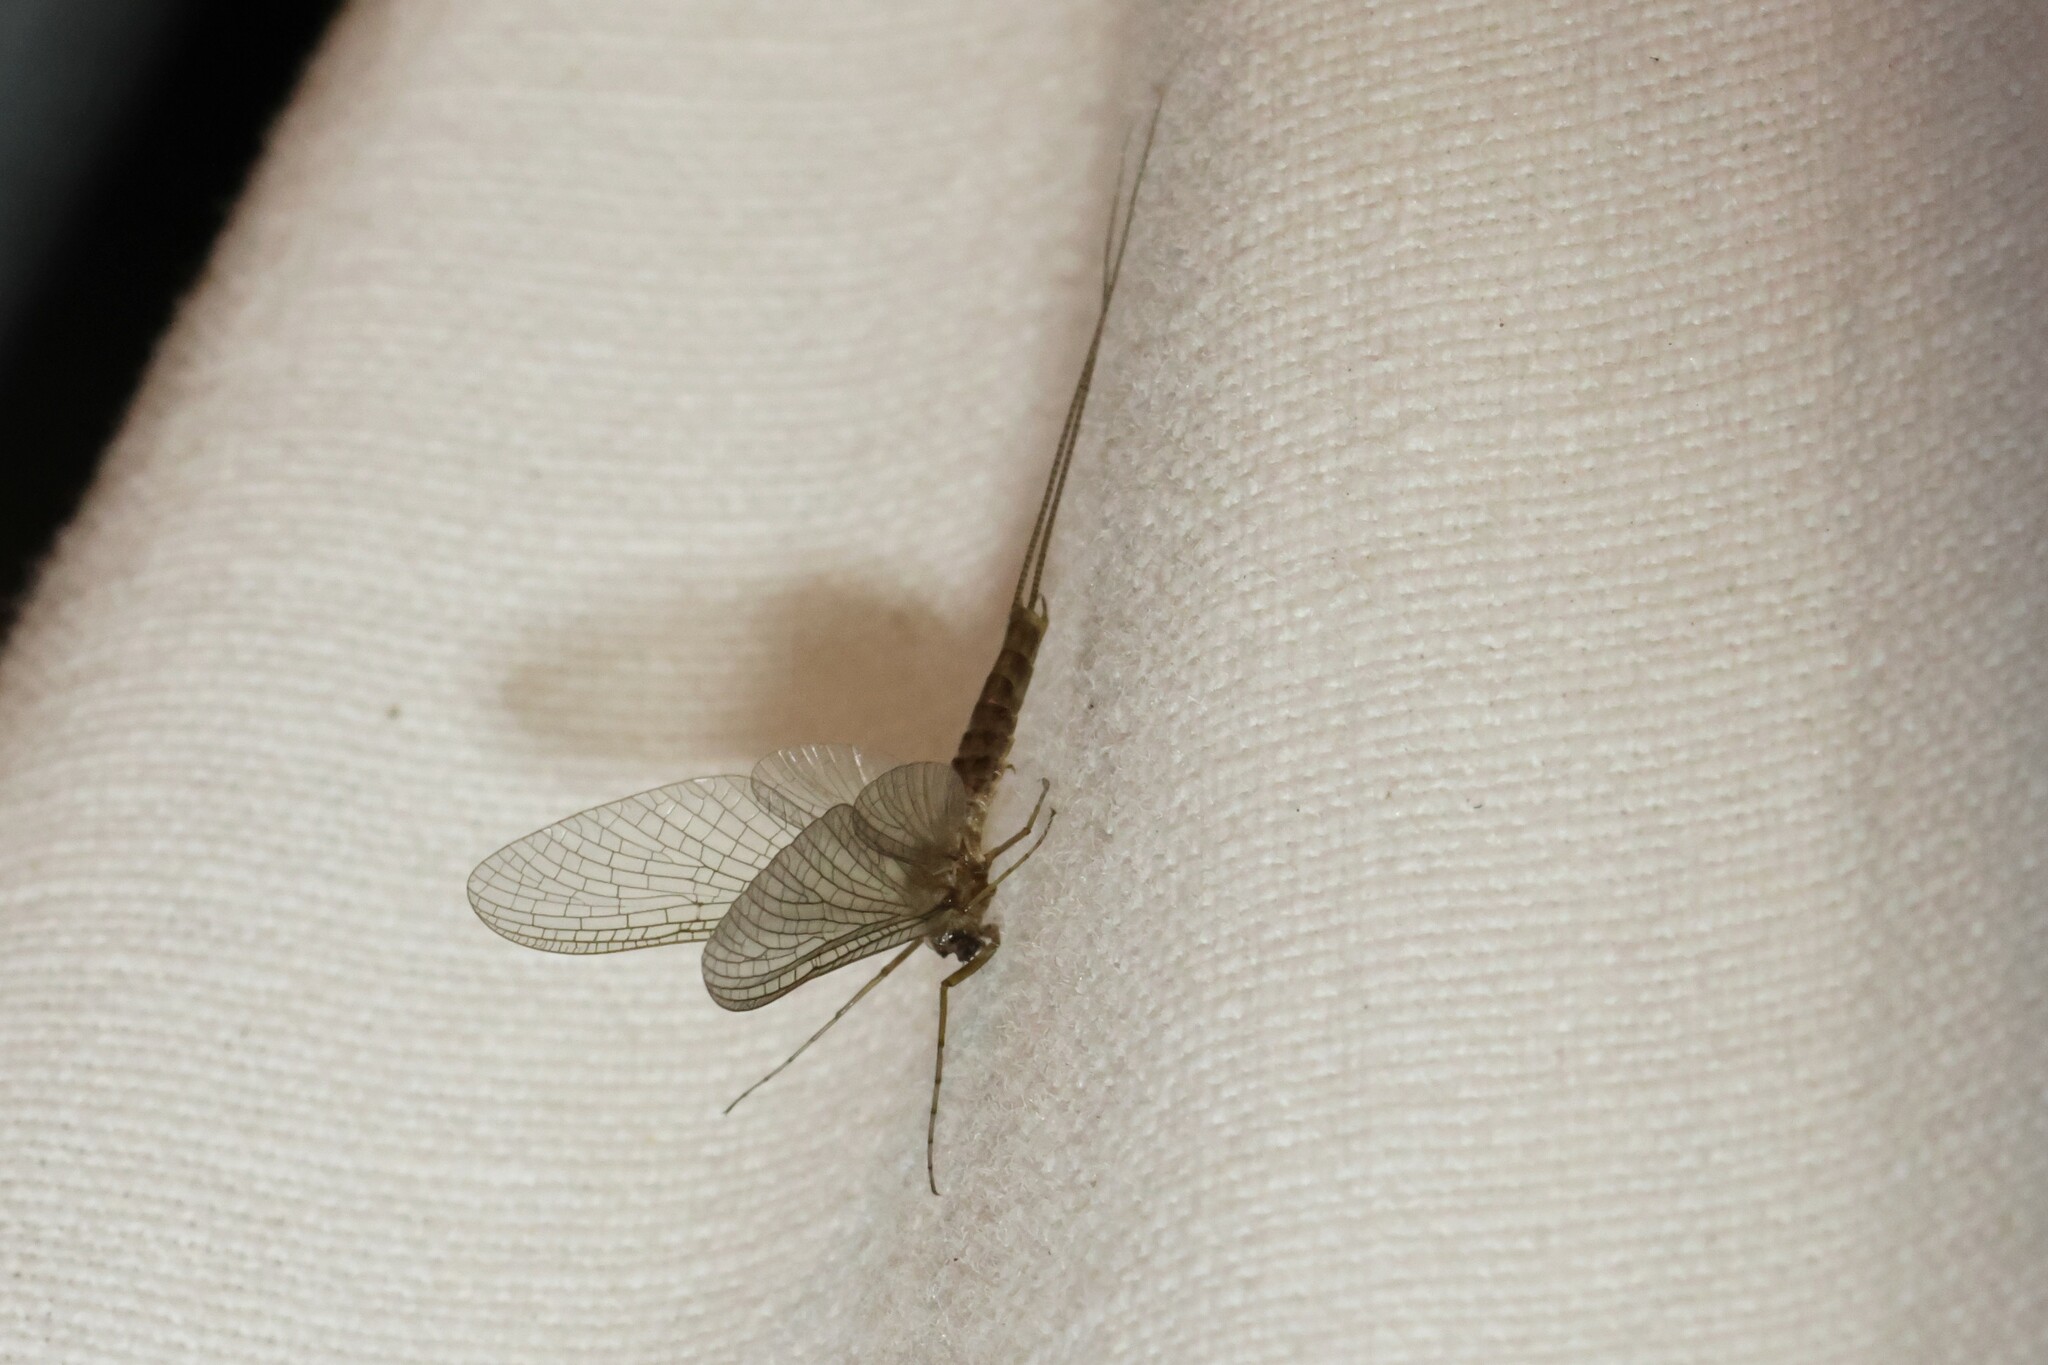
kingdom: Animalia
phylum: Arthropoda
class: Insecta
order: Ephemeroptera
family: Heptageniidae
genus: Stenonema
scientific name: Stenonema femoratum
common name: Dark cahill
